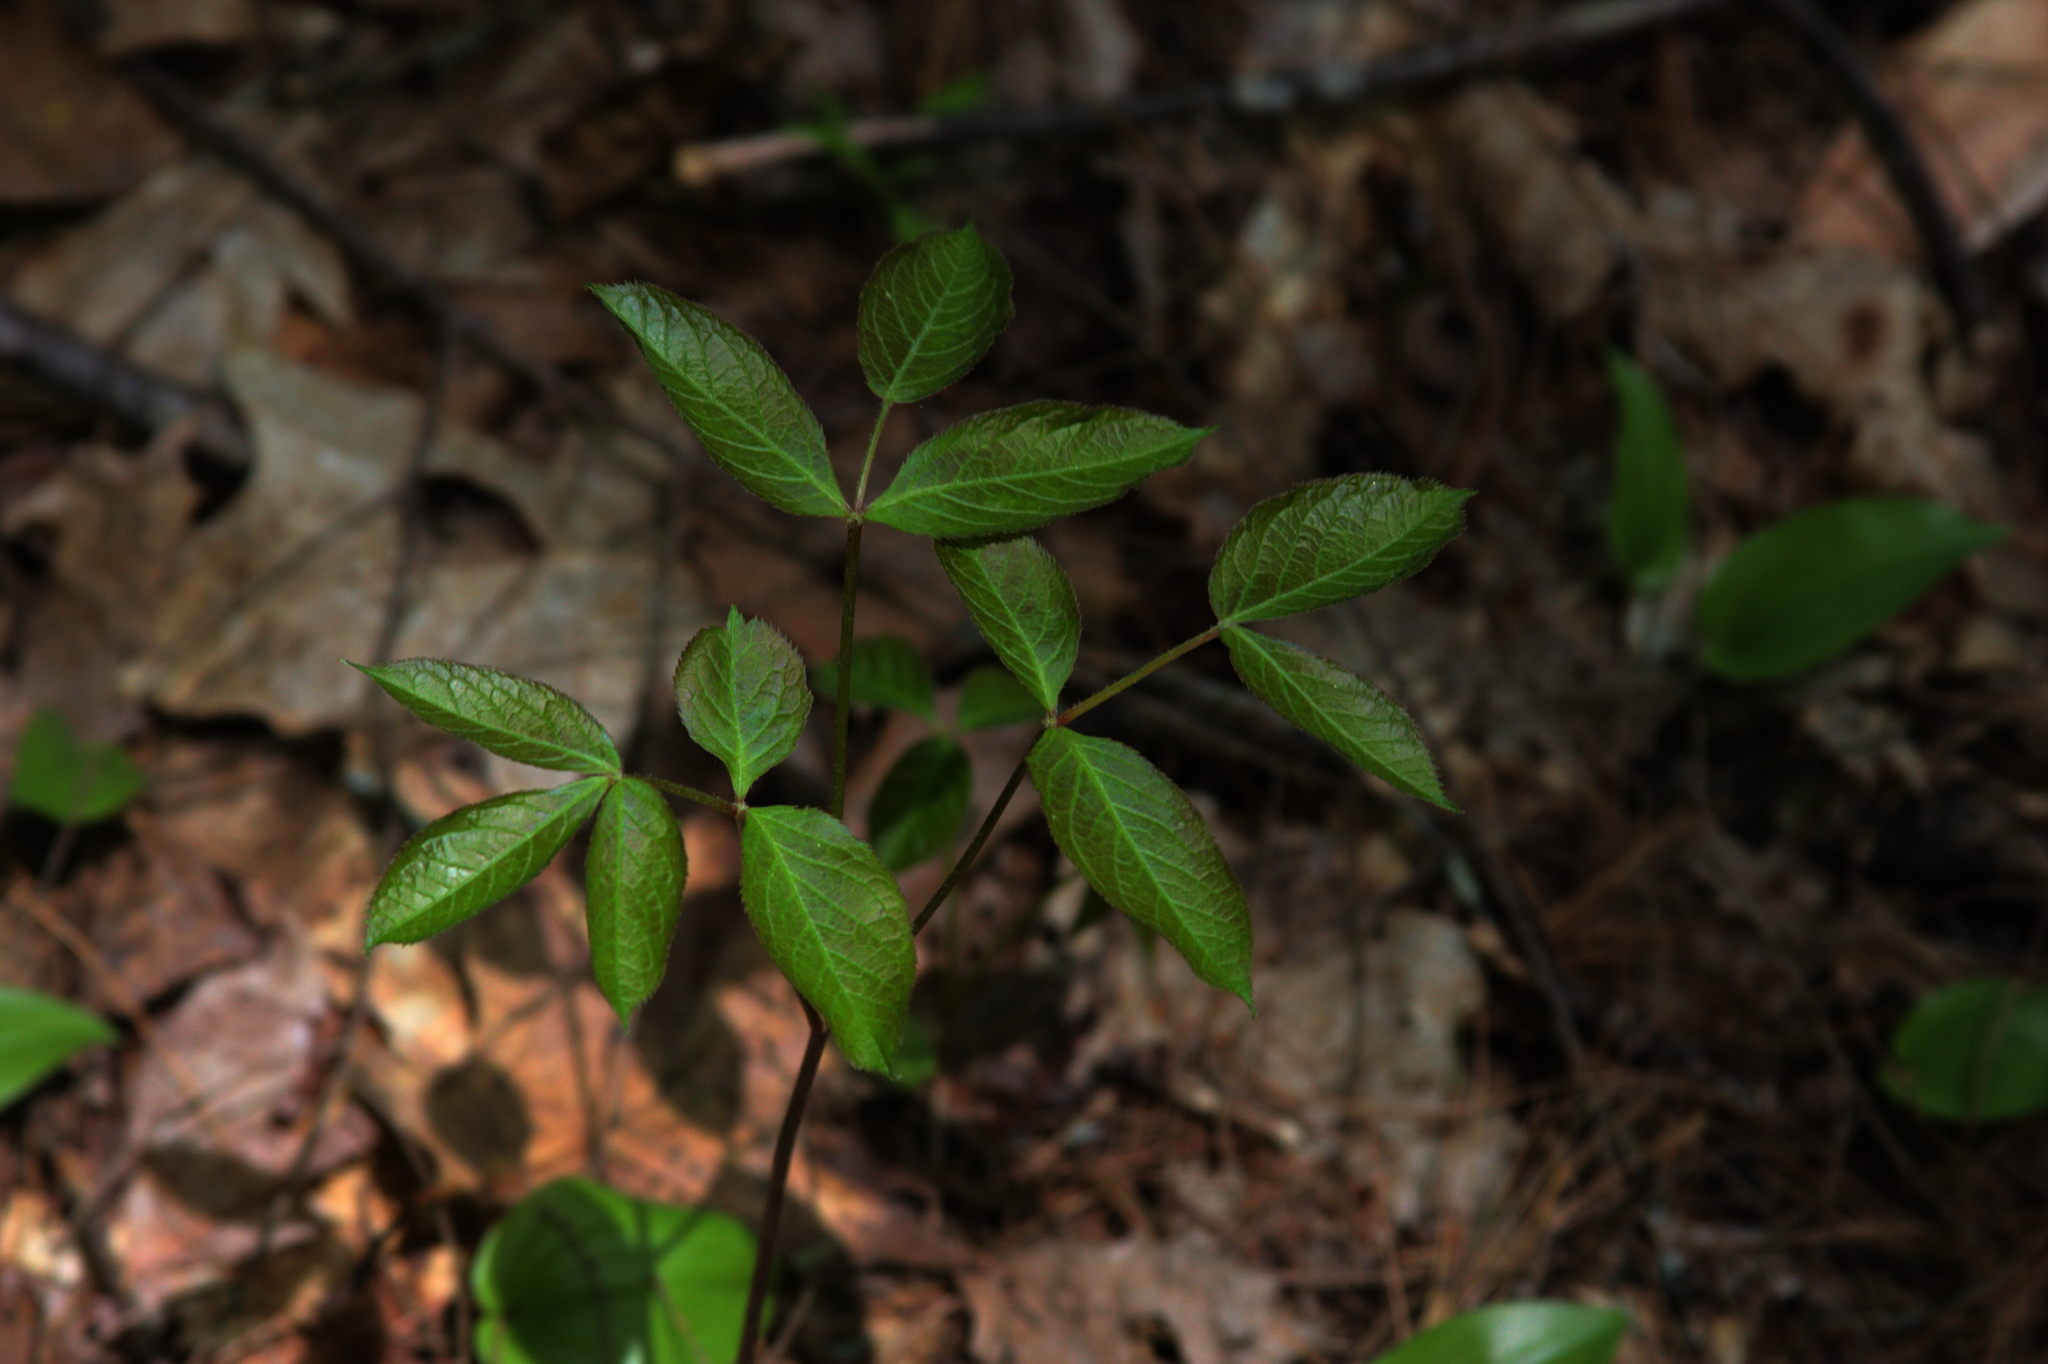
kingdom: Plantae
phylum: Tracheophyta
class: Magnoliopsida
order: Apiales
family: Araliaceae
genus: Aralia
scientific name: Aralia nudicaulis
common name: Wild sarsaparilla
